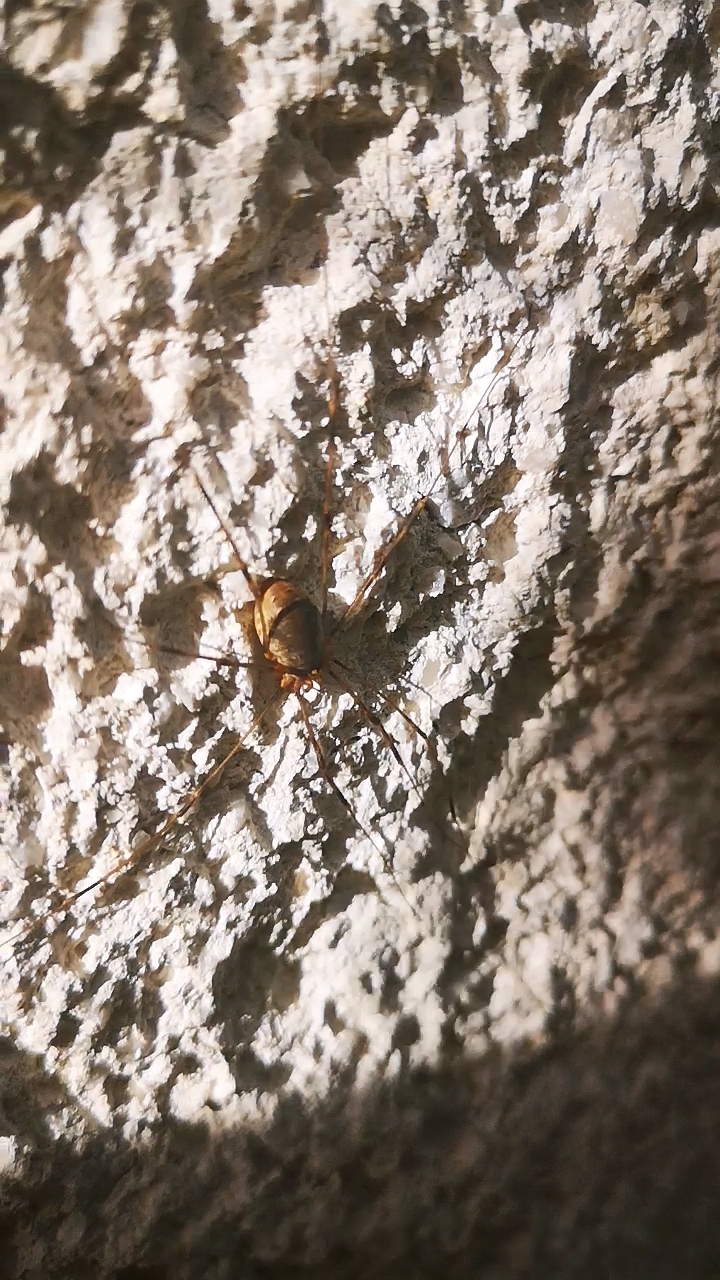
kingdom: Animalia
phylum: Arthropoda
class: Arachnida
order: Opiliones
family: Phalangiidae
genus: Opilio
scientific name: Opilio canestrinii
